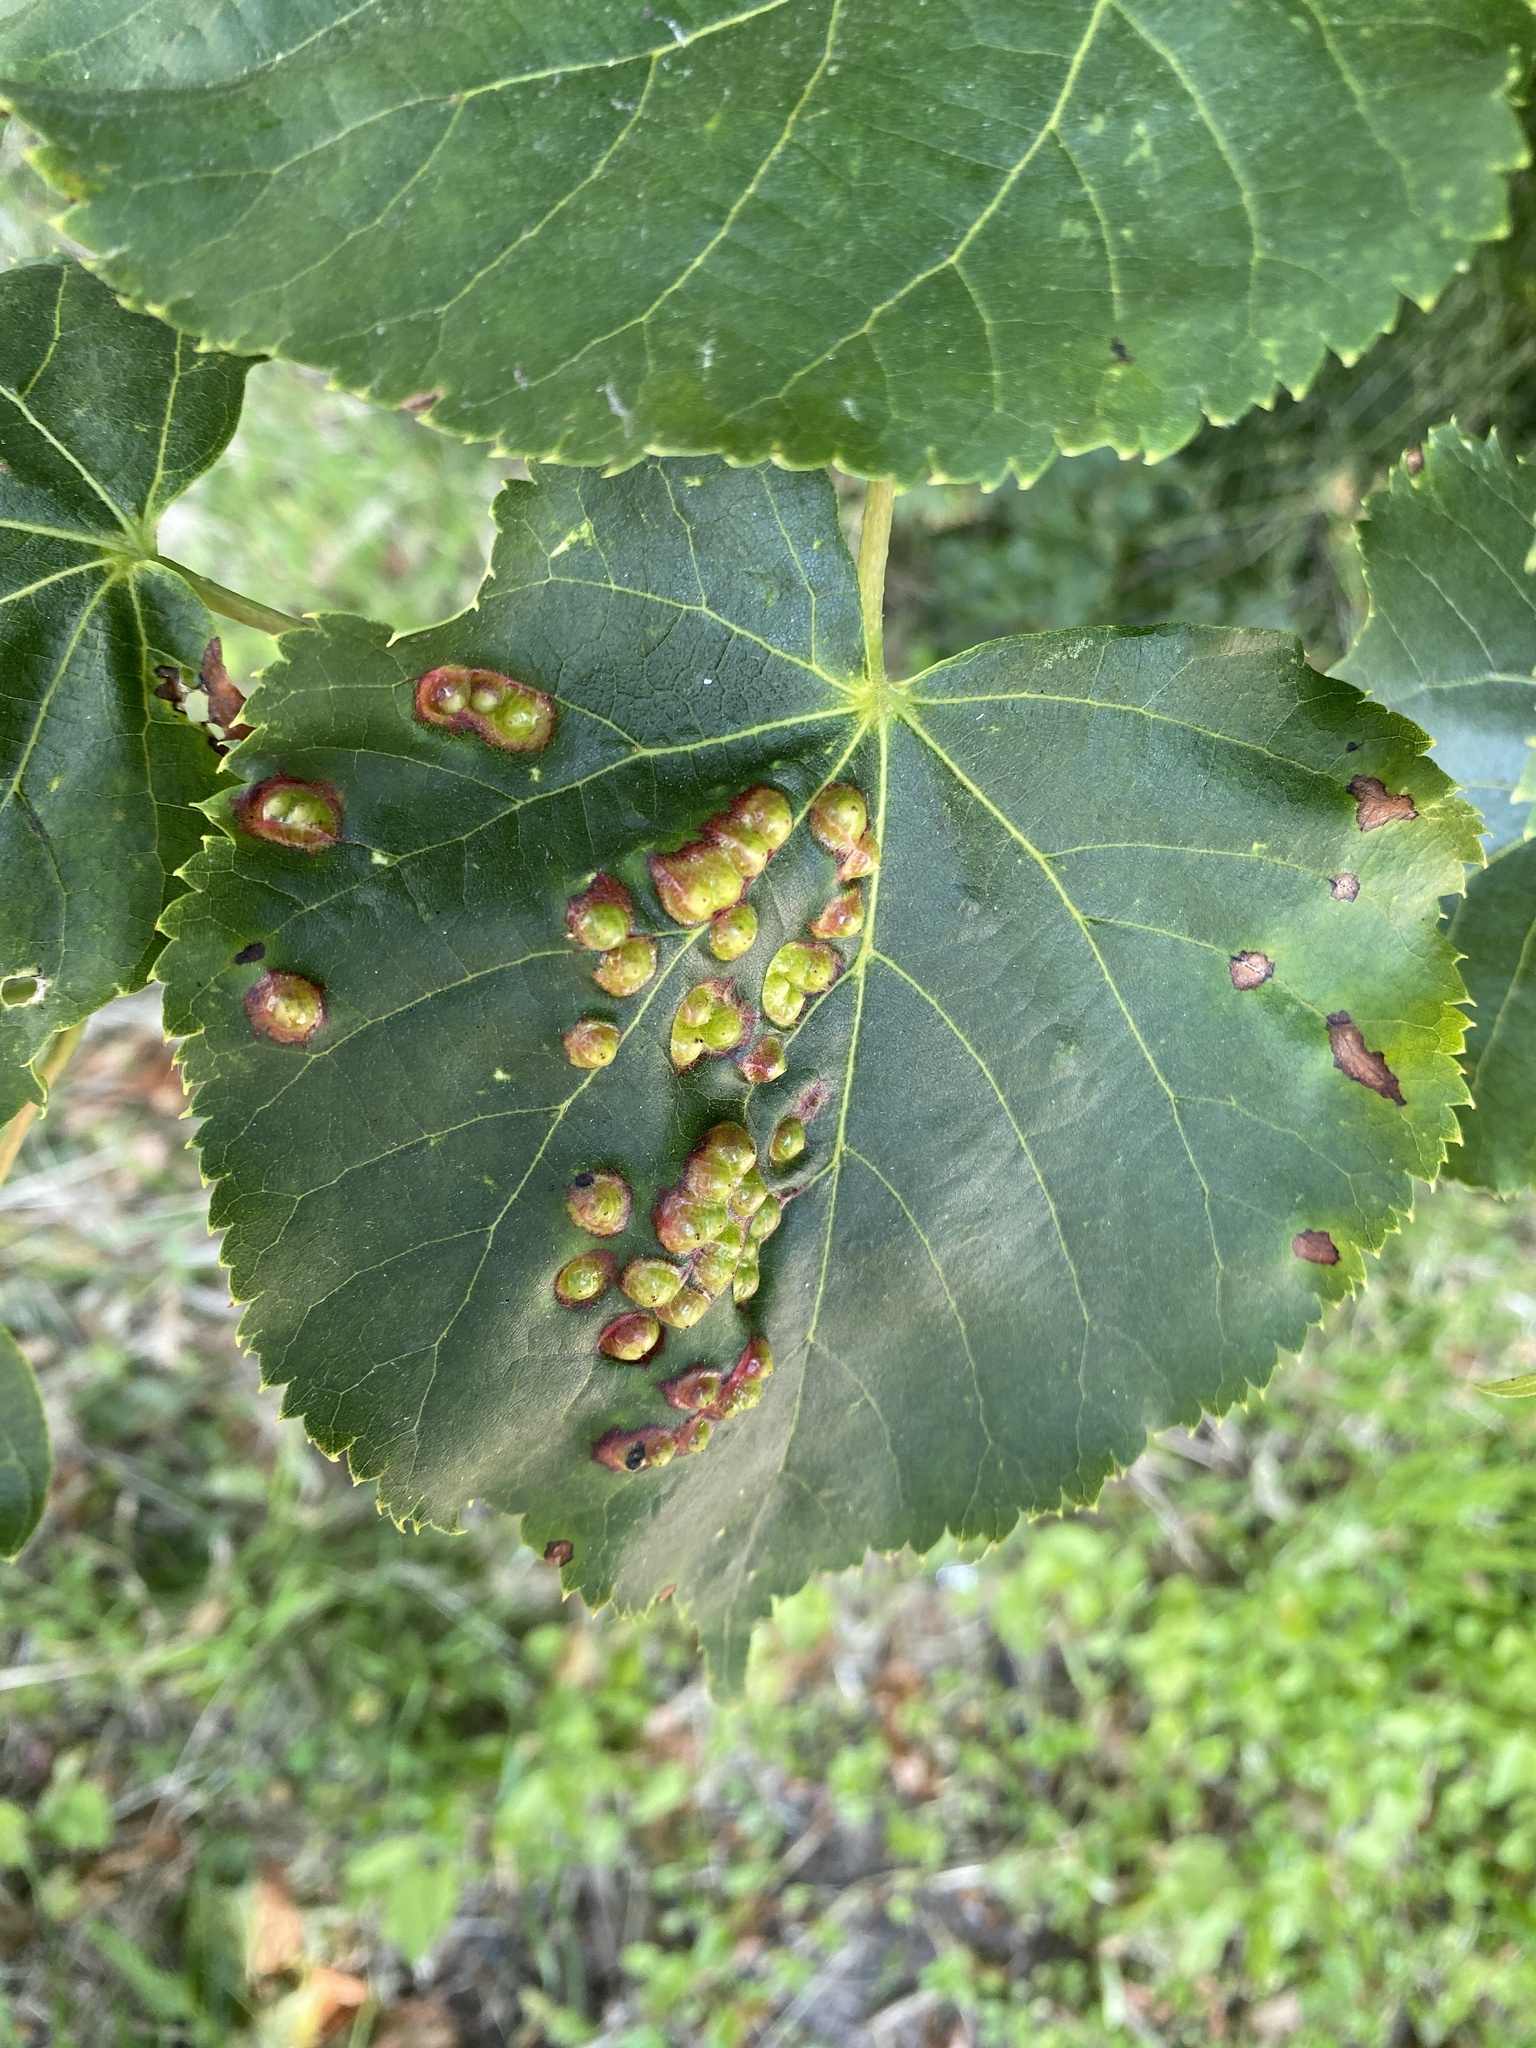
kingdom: Animalia
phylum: Arthropoda
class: Insecta
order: Diptera
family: Cecidomyiidae
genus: Didymomyia
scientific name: Didymomyia tiliacea
